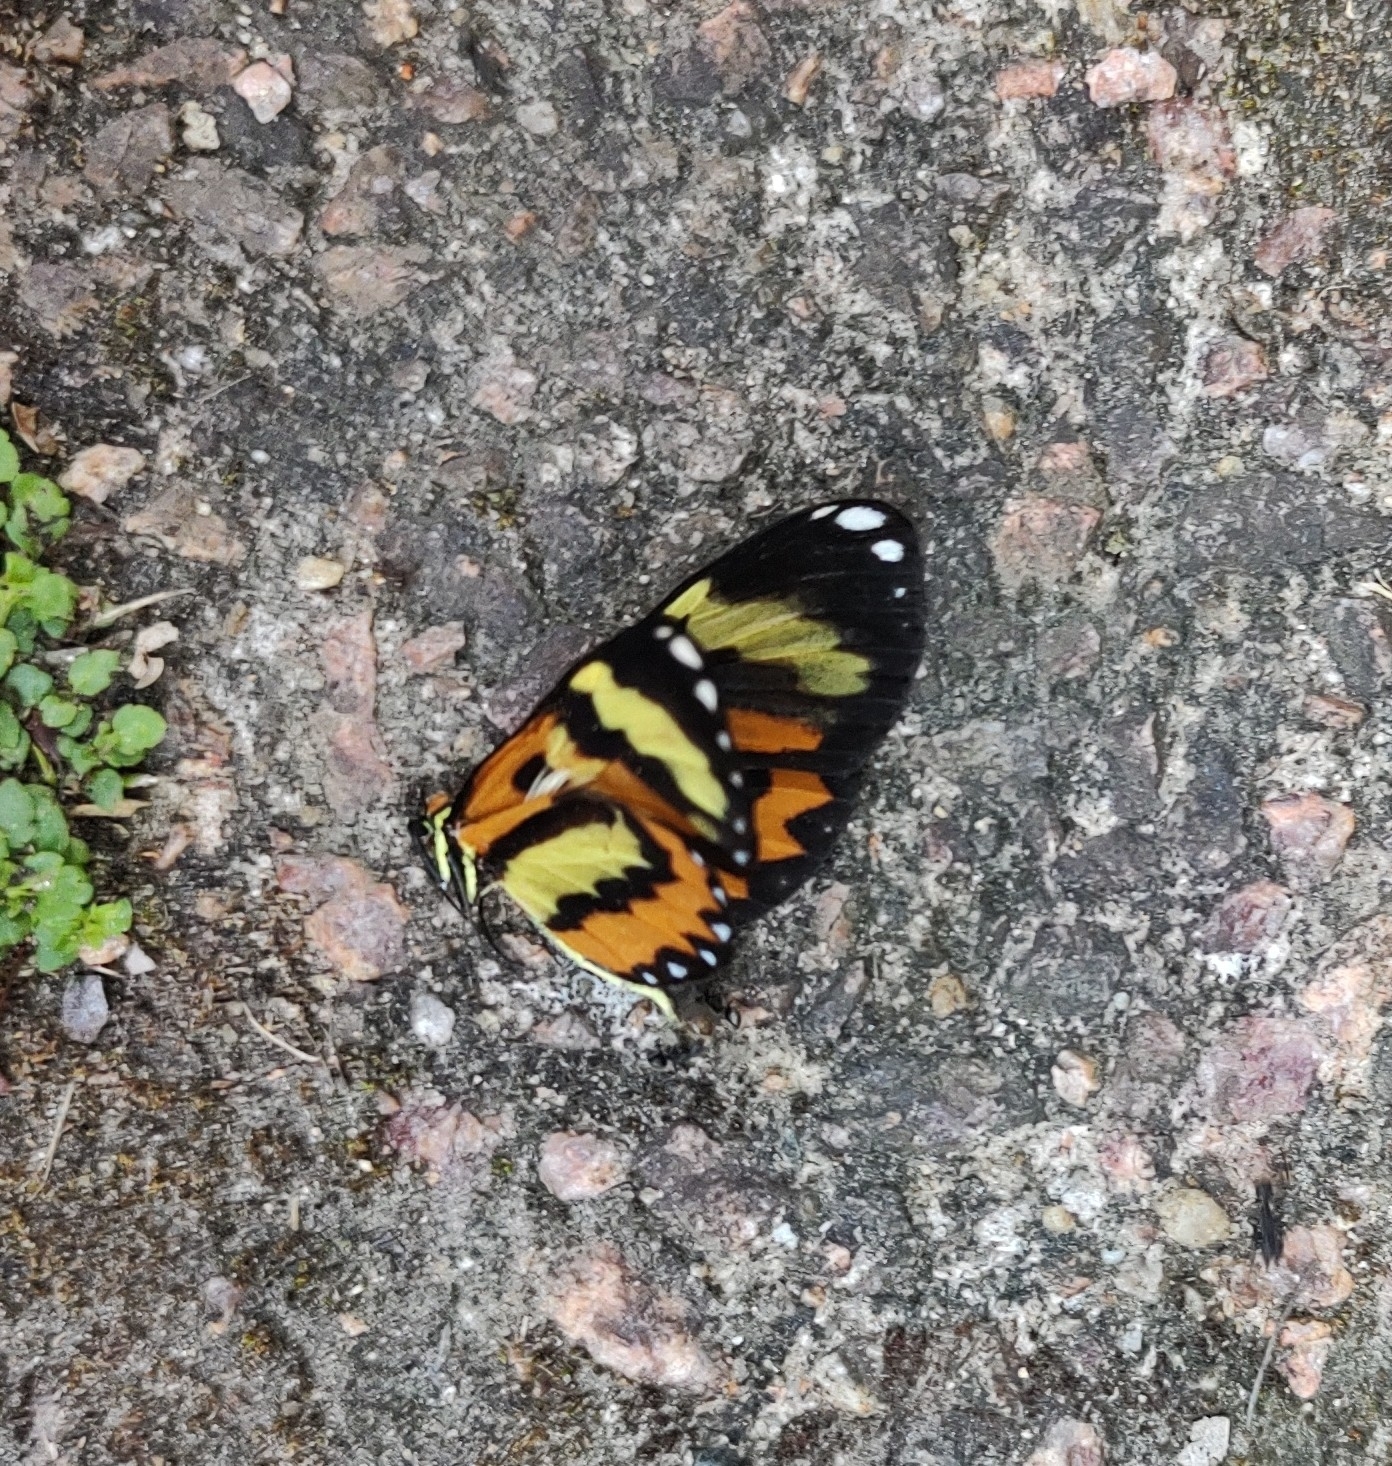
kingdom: Animalia
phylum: Arthropoda
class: Insecta
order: Lepidoptera
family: Nymphalidae
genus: Placidina
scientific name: Placidina euryanassa
